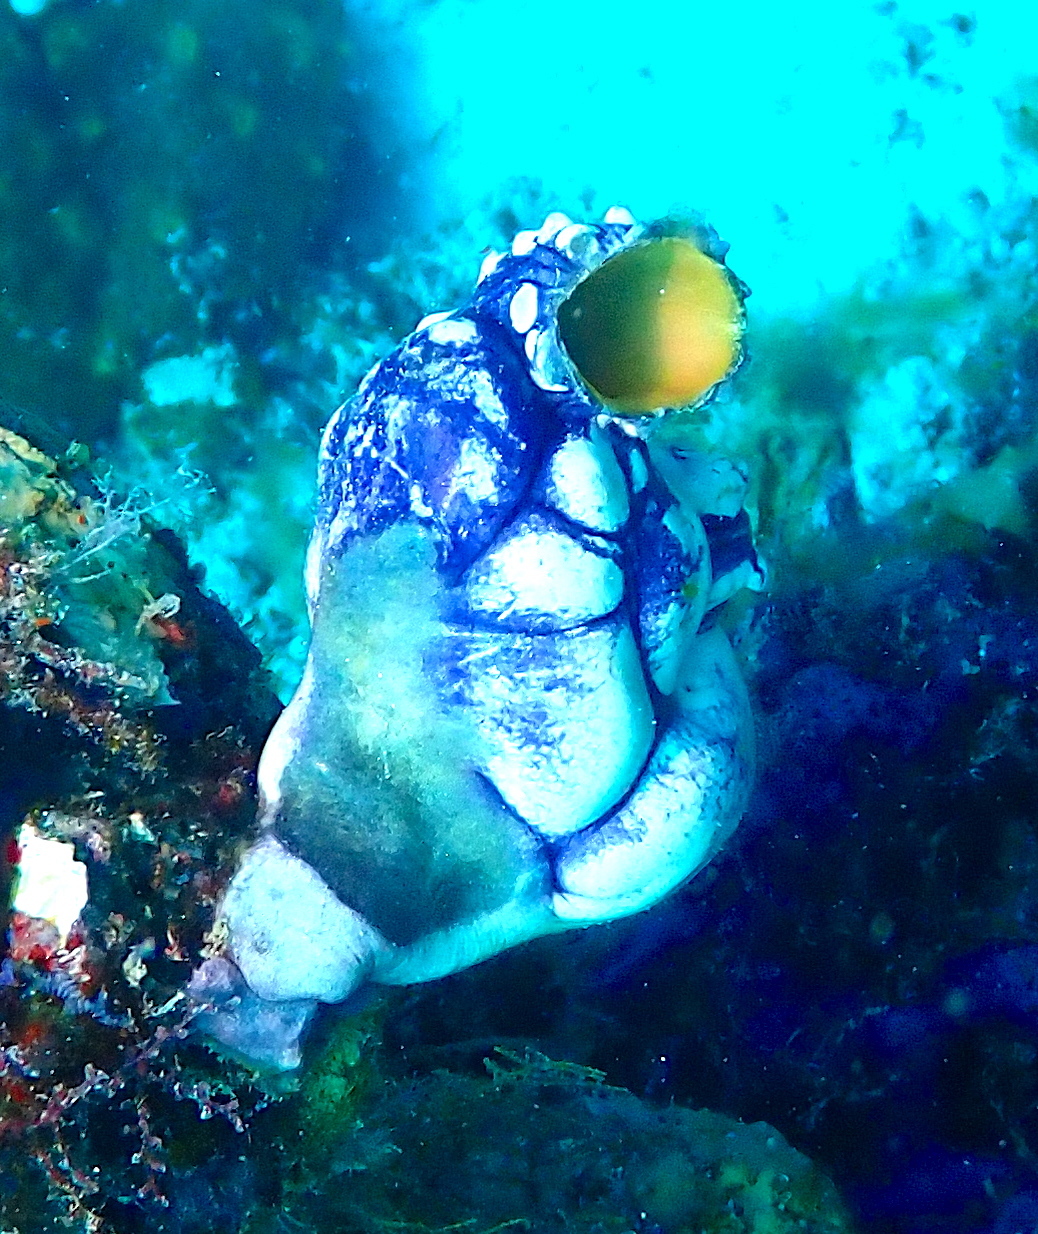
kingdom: Animalia
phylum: Chordata
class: Ascidiacea
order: Stolidobranchia
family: Styelidae
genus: Polycarpa
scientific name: Polycarpa aurata
